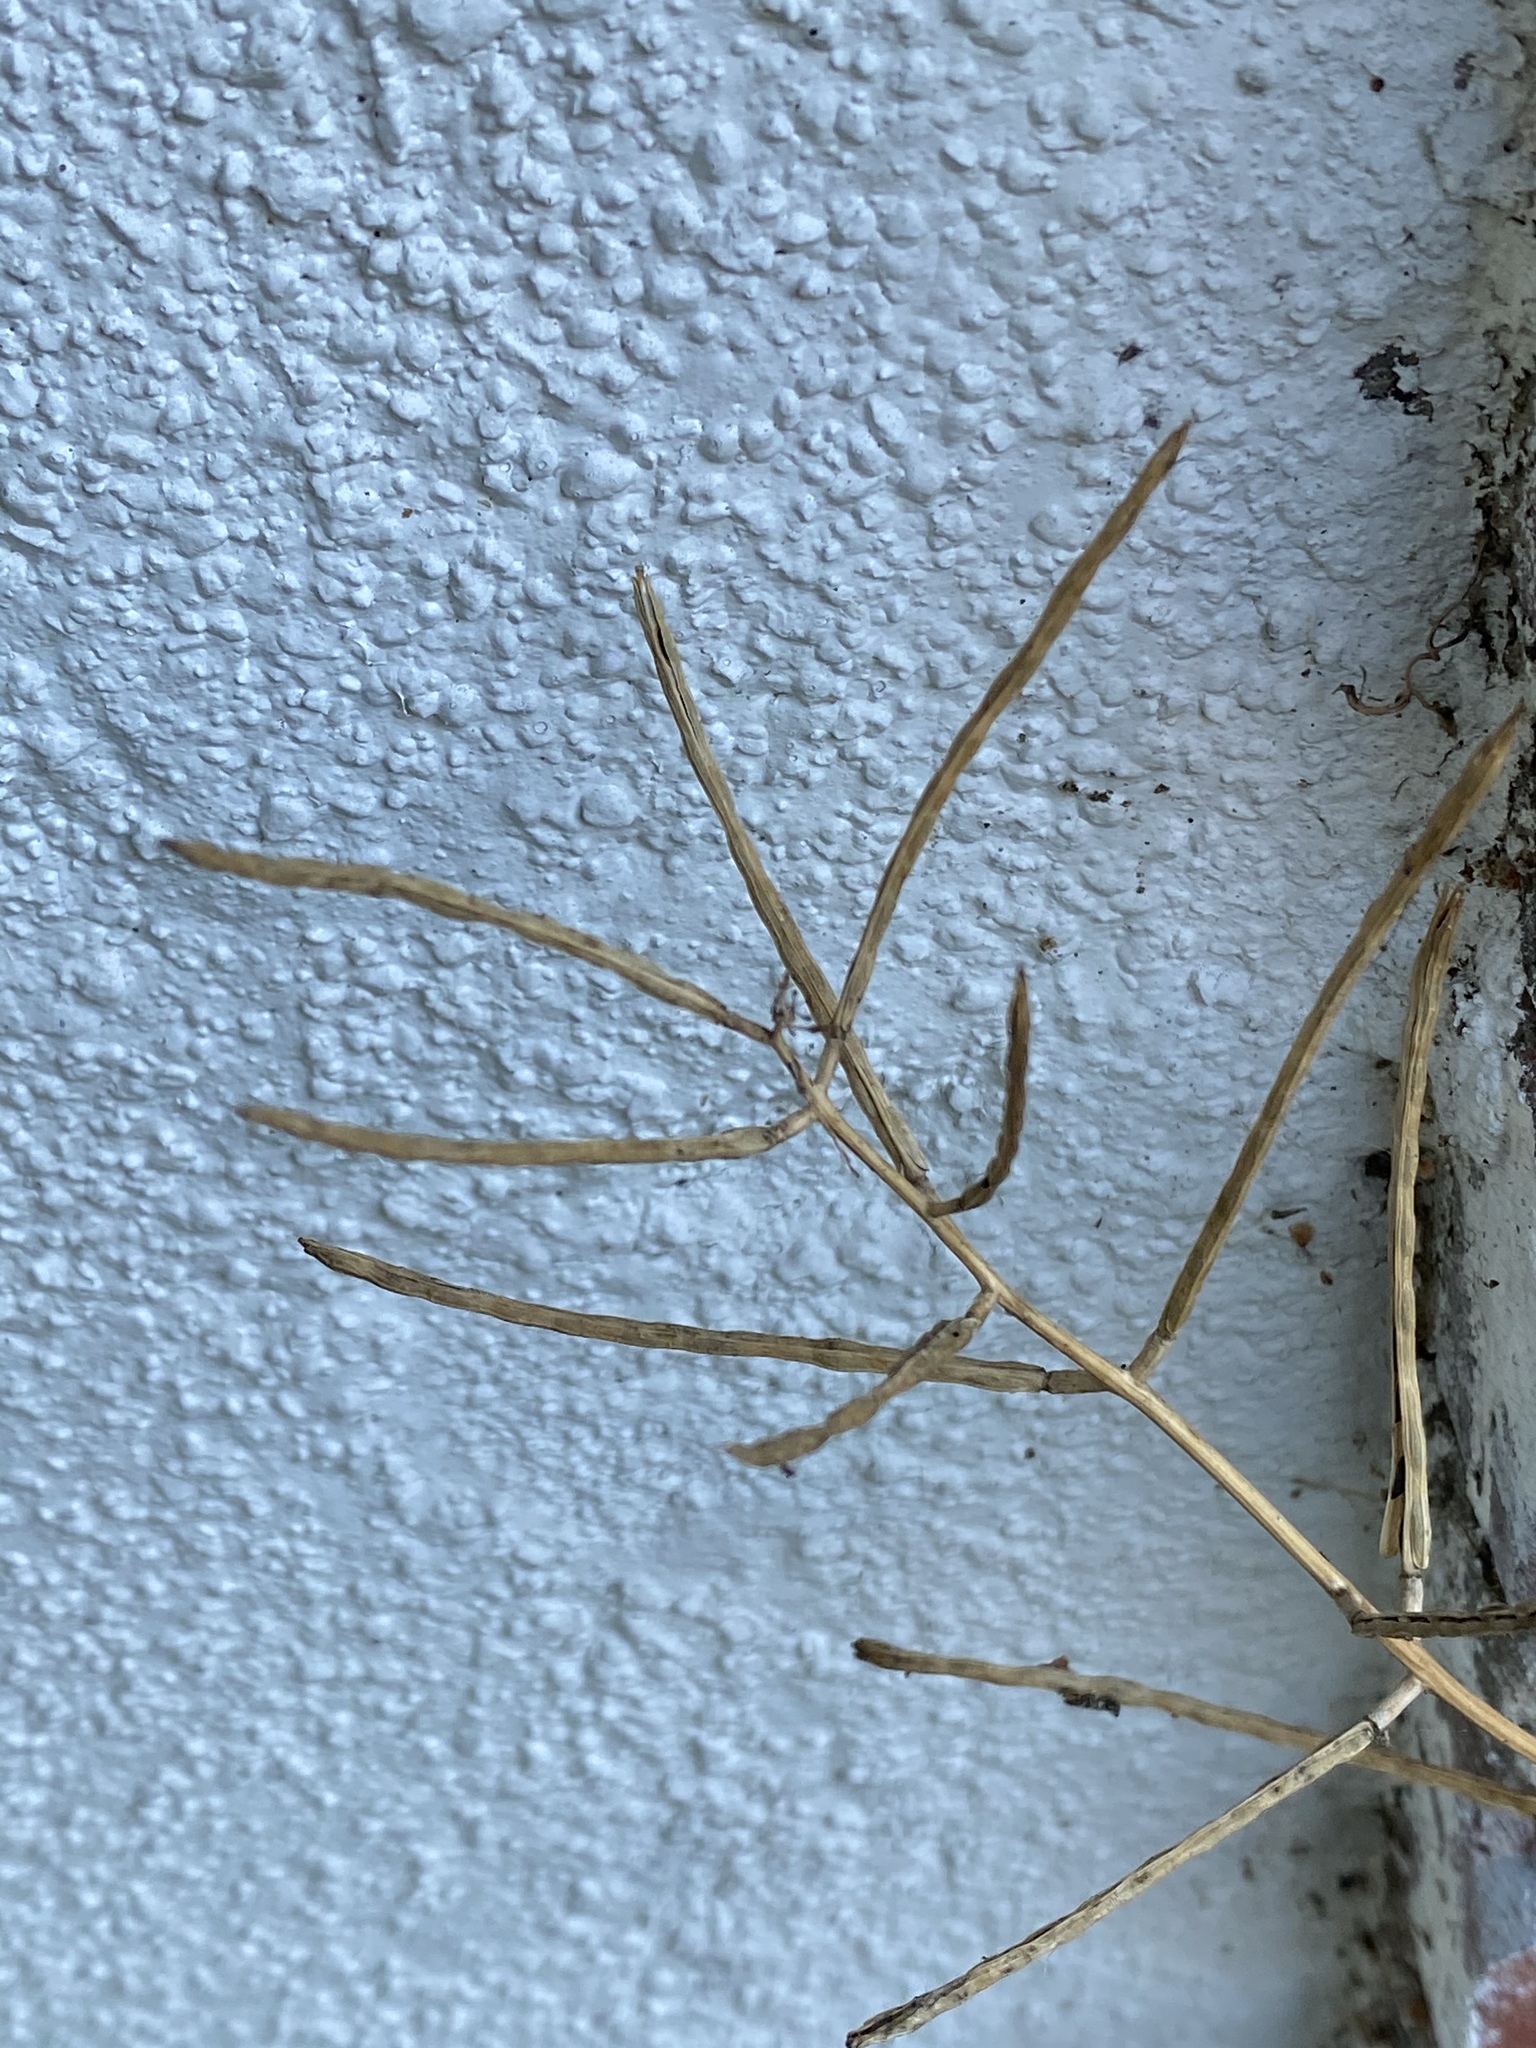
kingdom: Plantae
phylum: Tracheophyta
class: Magnoliopsida
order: Brassicales
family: Brassicaceae
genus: Alliaria
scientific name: Alliaria petiolata
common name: Garlic mustard
